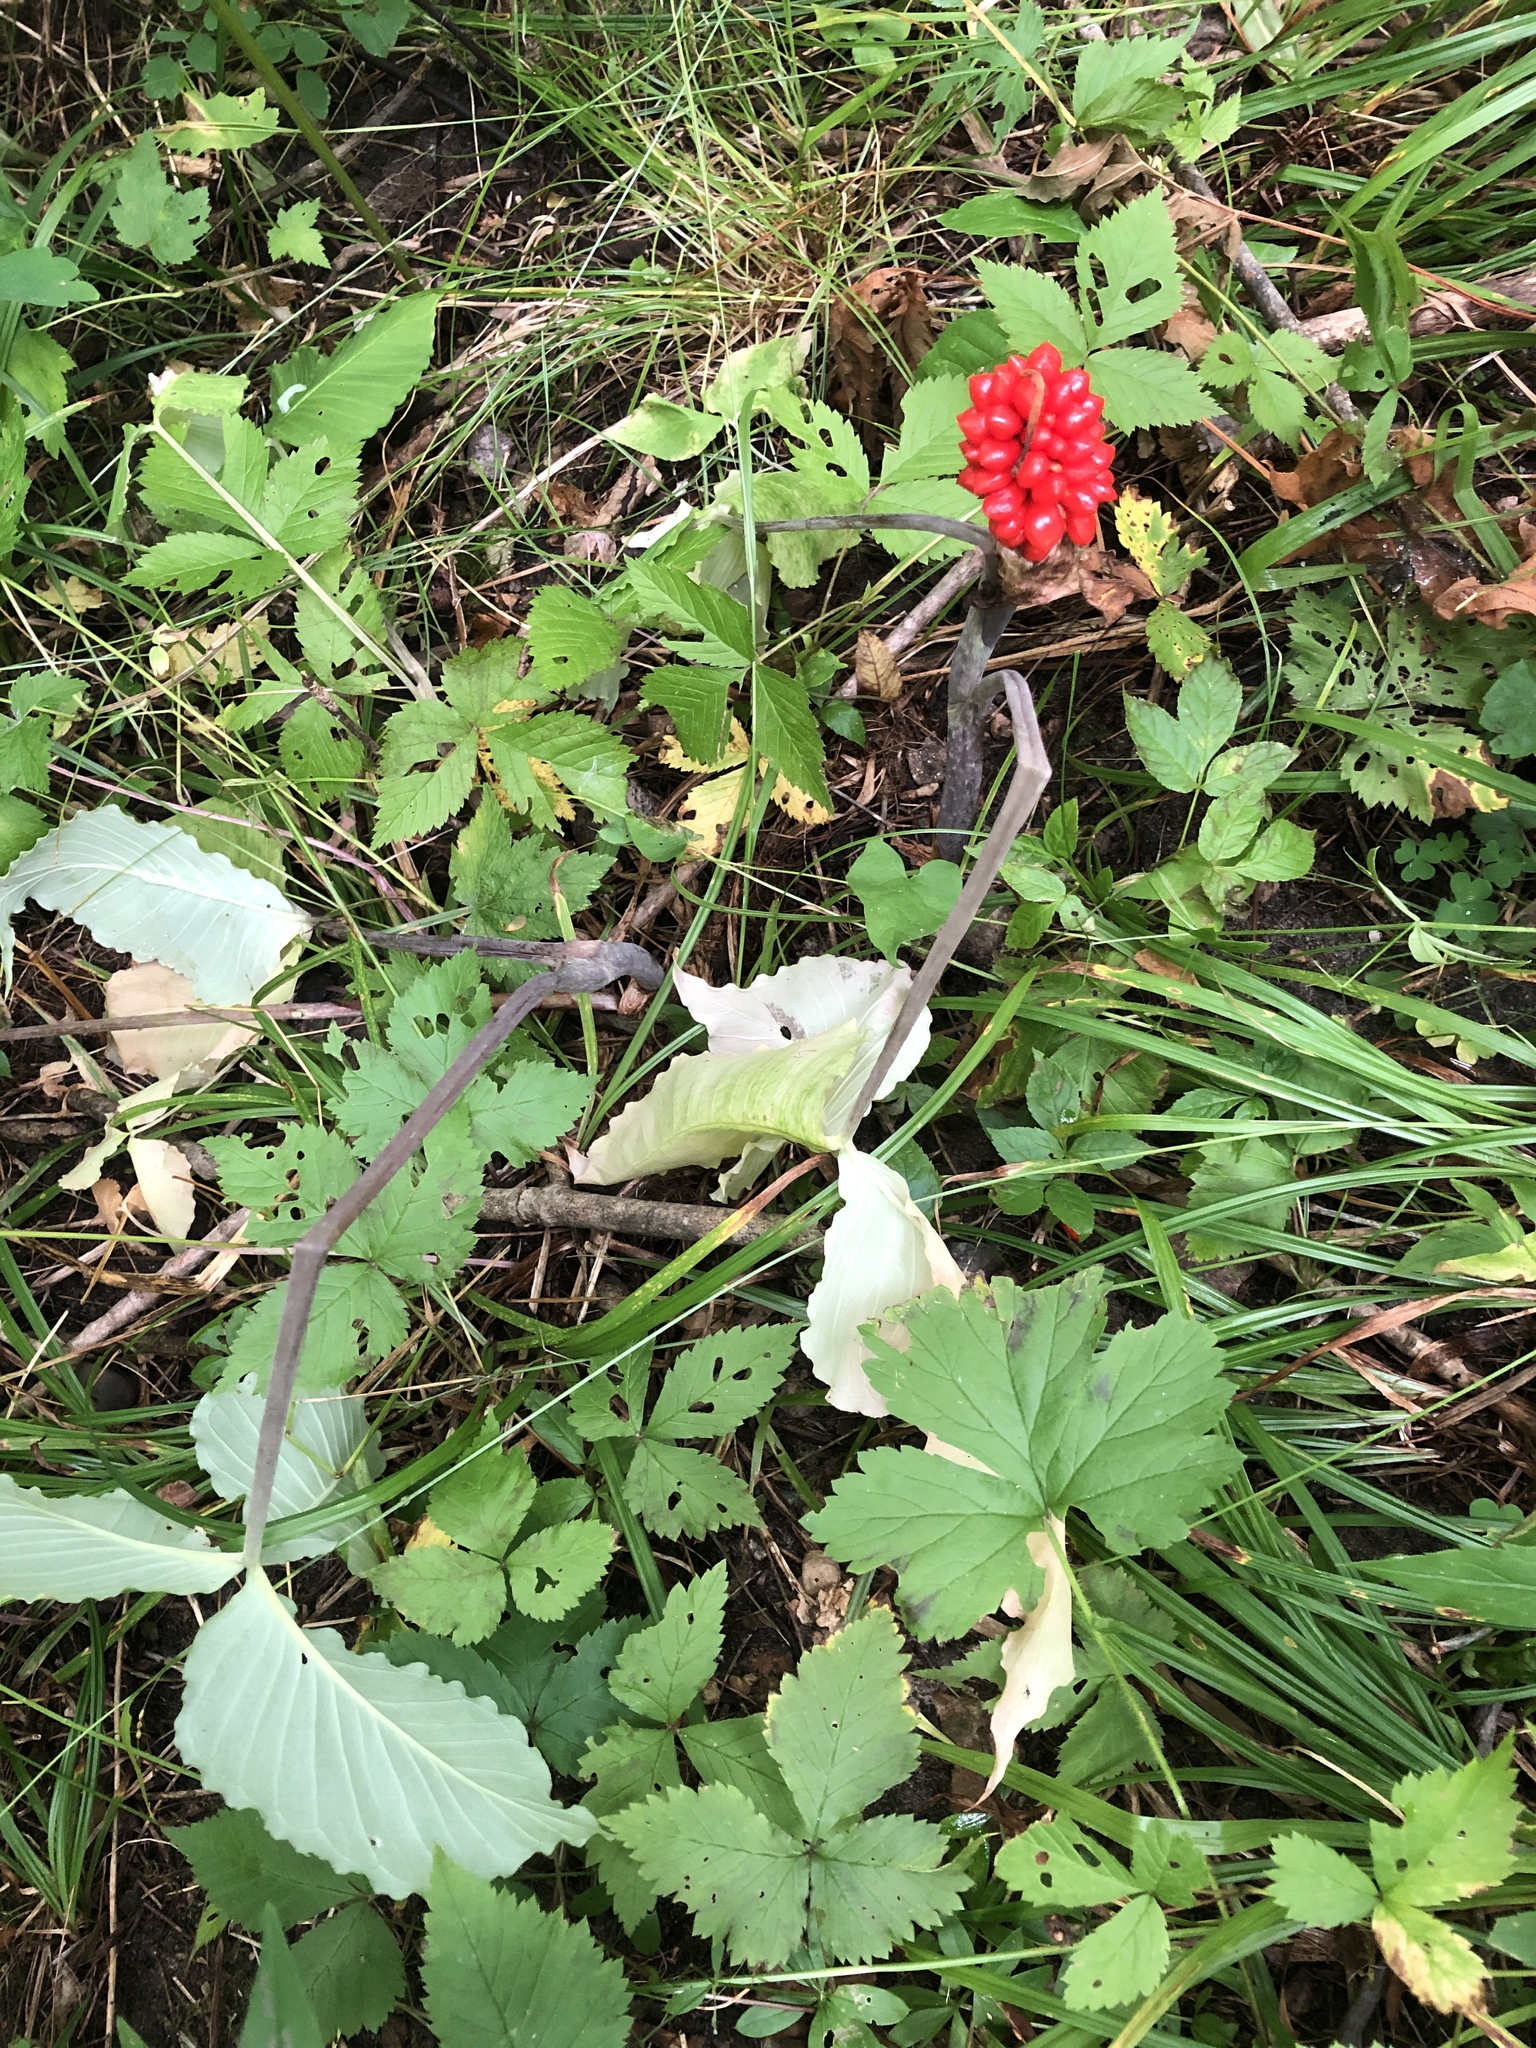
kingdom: Plantae
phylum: Tracheophyta
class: Liliopsida
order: Alismatales
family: Araceae
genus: Arisaema
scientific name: Arisaema triphyllum
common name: Jack-in-the-pulpit
